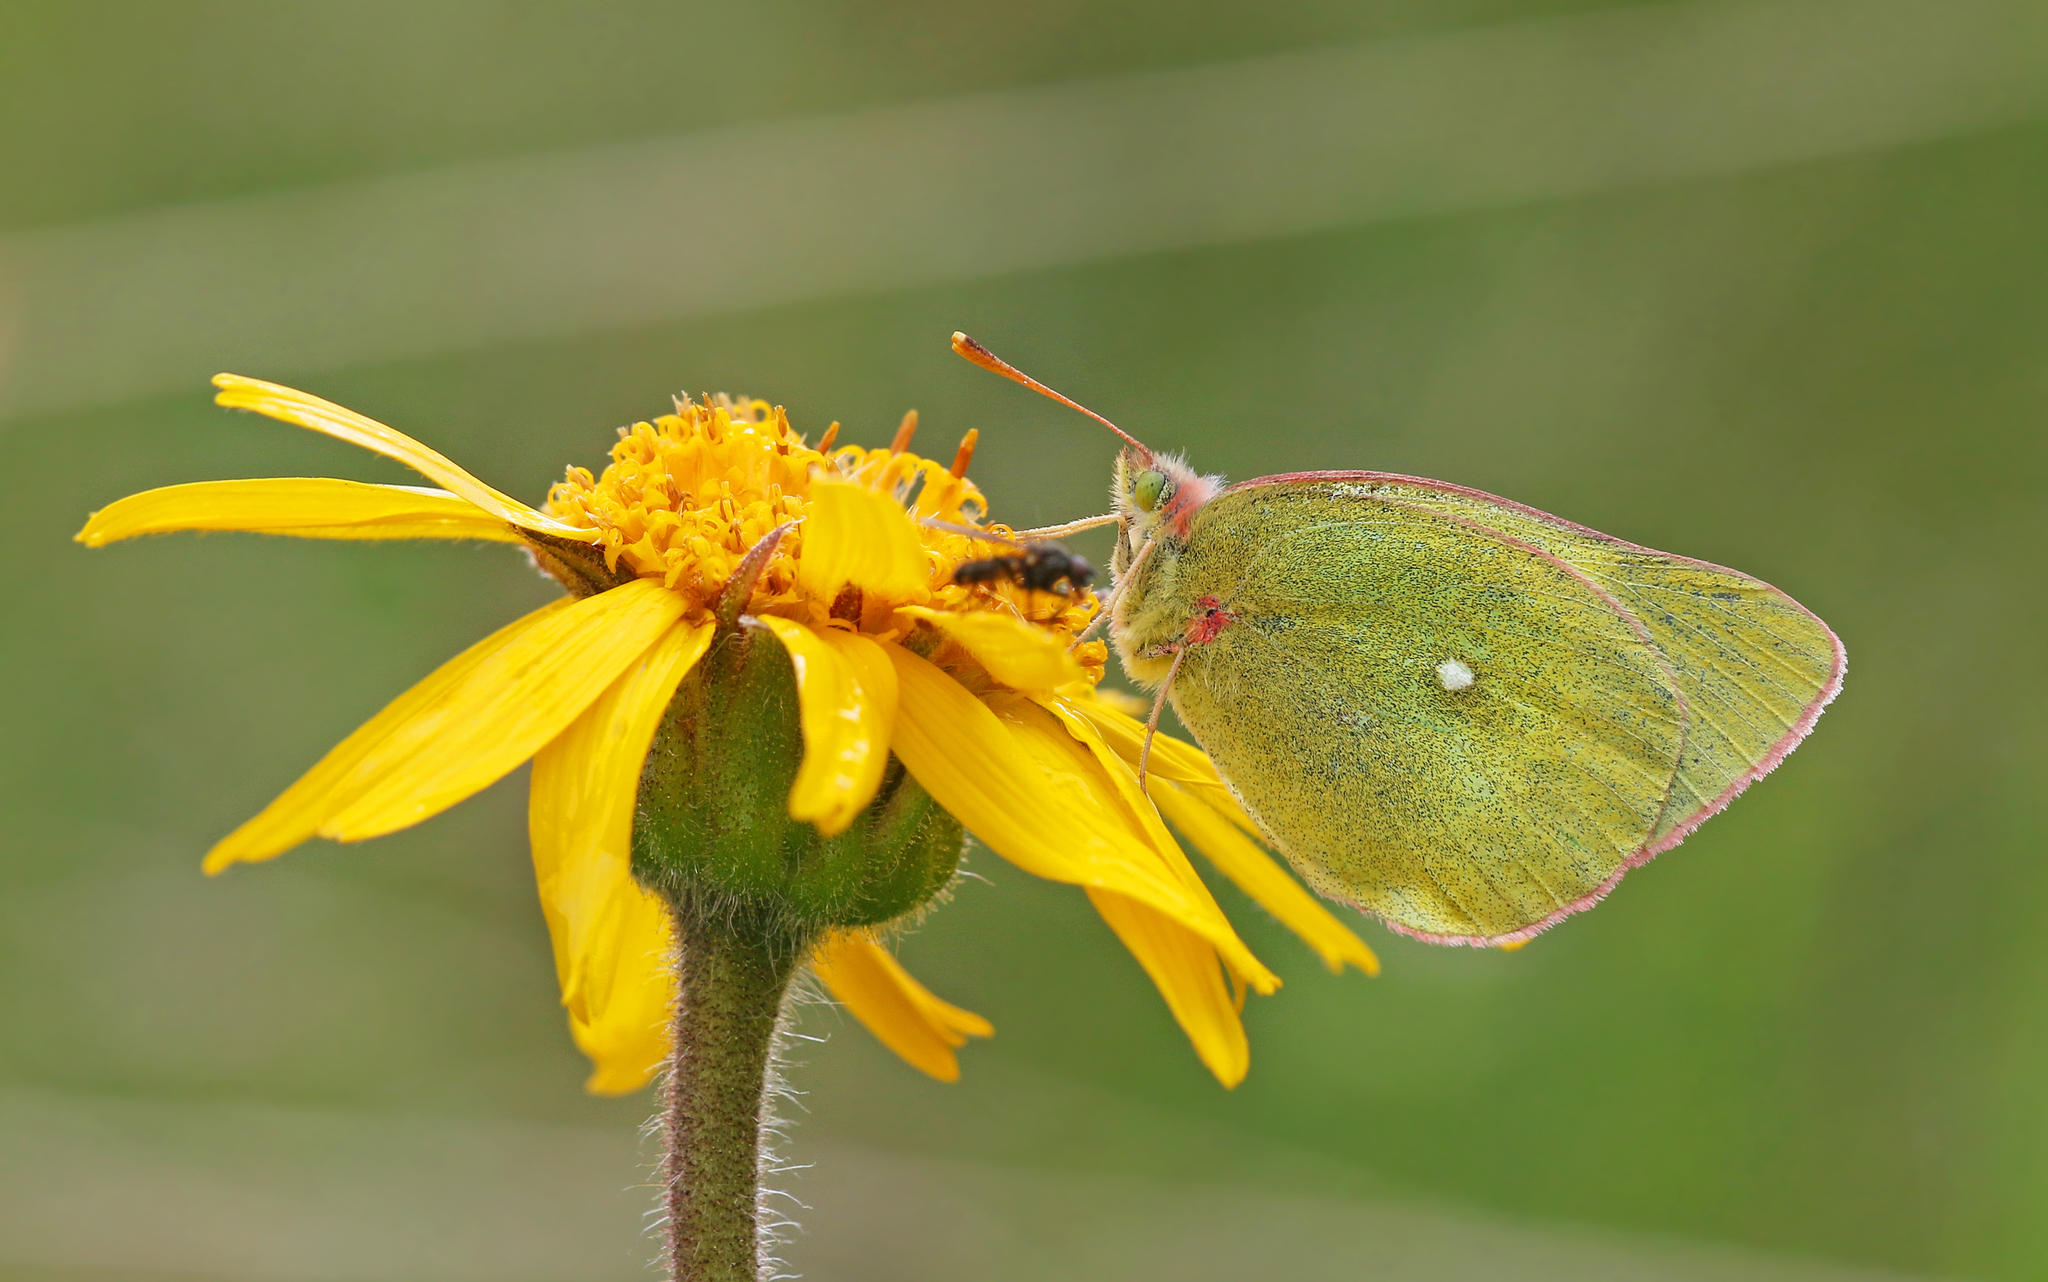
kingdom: Animalia
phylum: Arthropoda
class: Insecta
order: Lepidoptera
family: Pieridae
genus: Colias
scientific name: Colias palaeno
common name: Moorland clouded yellow
